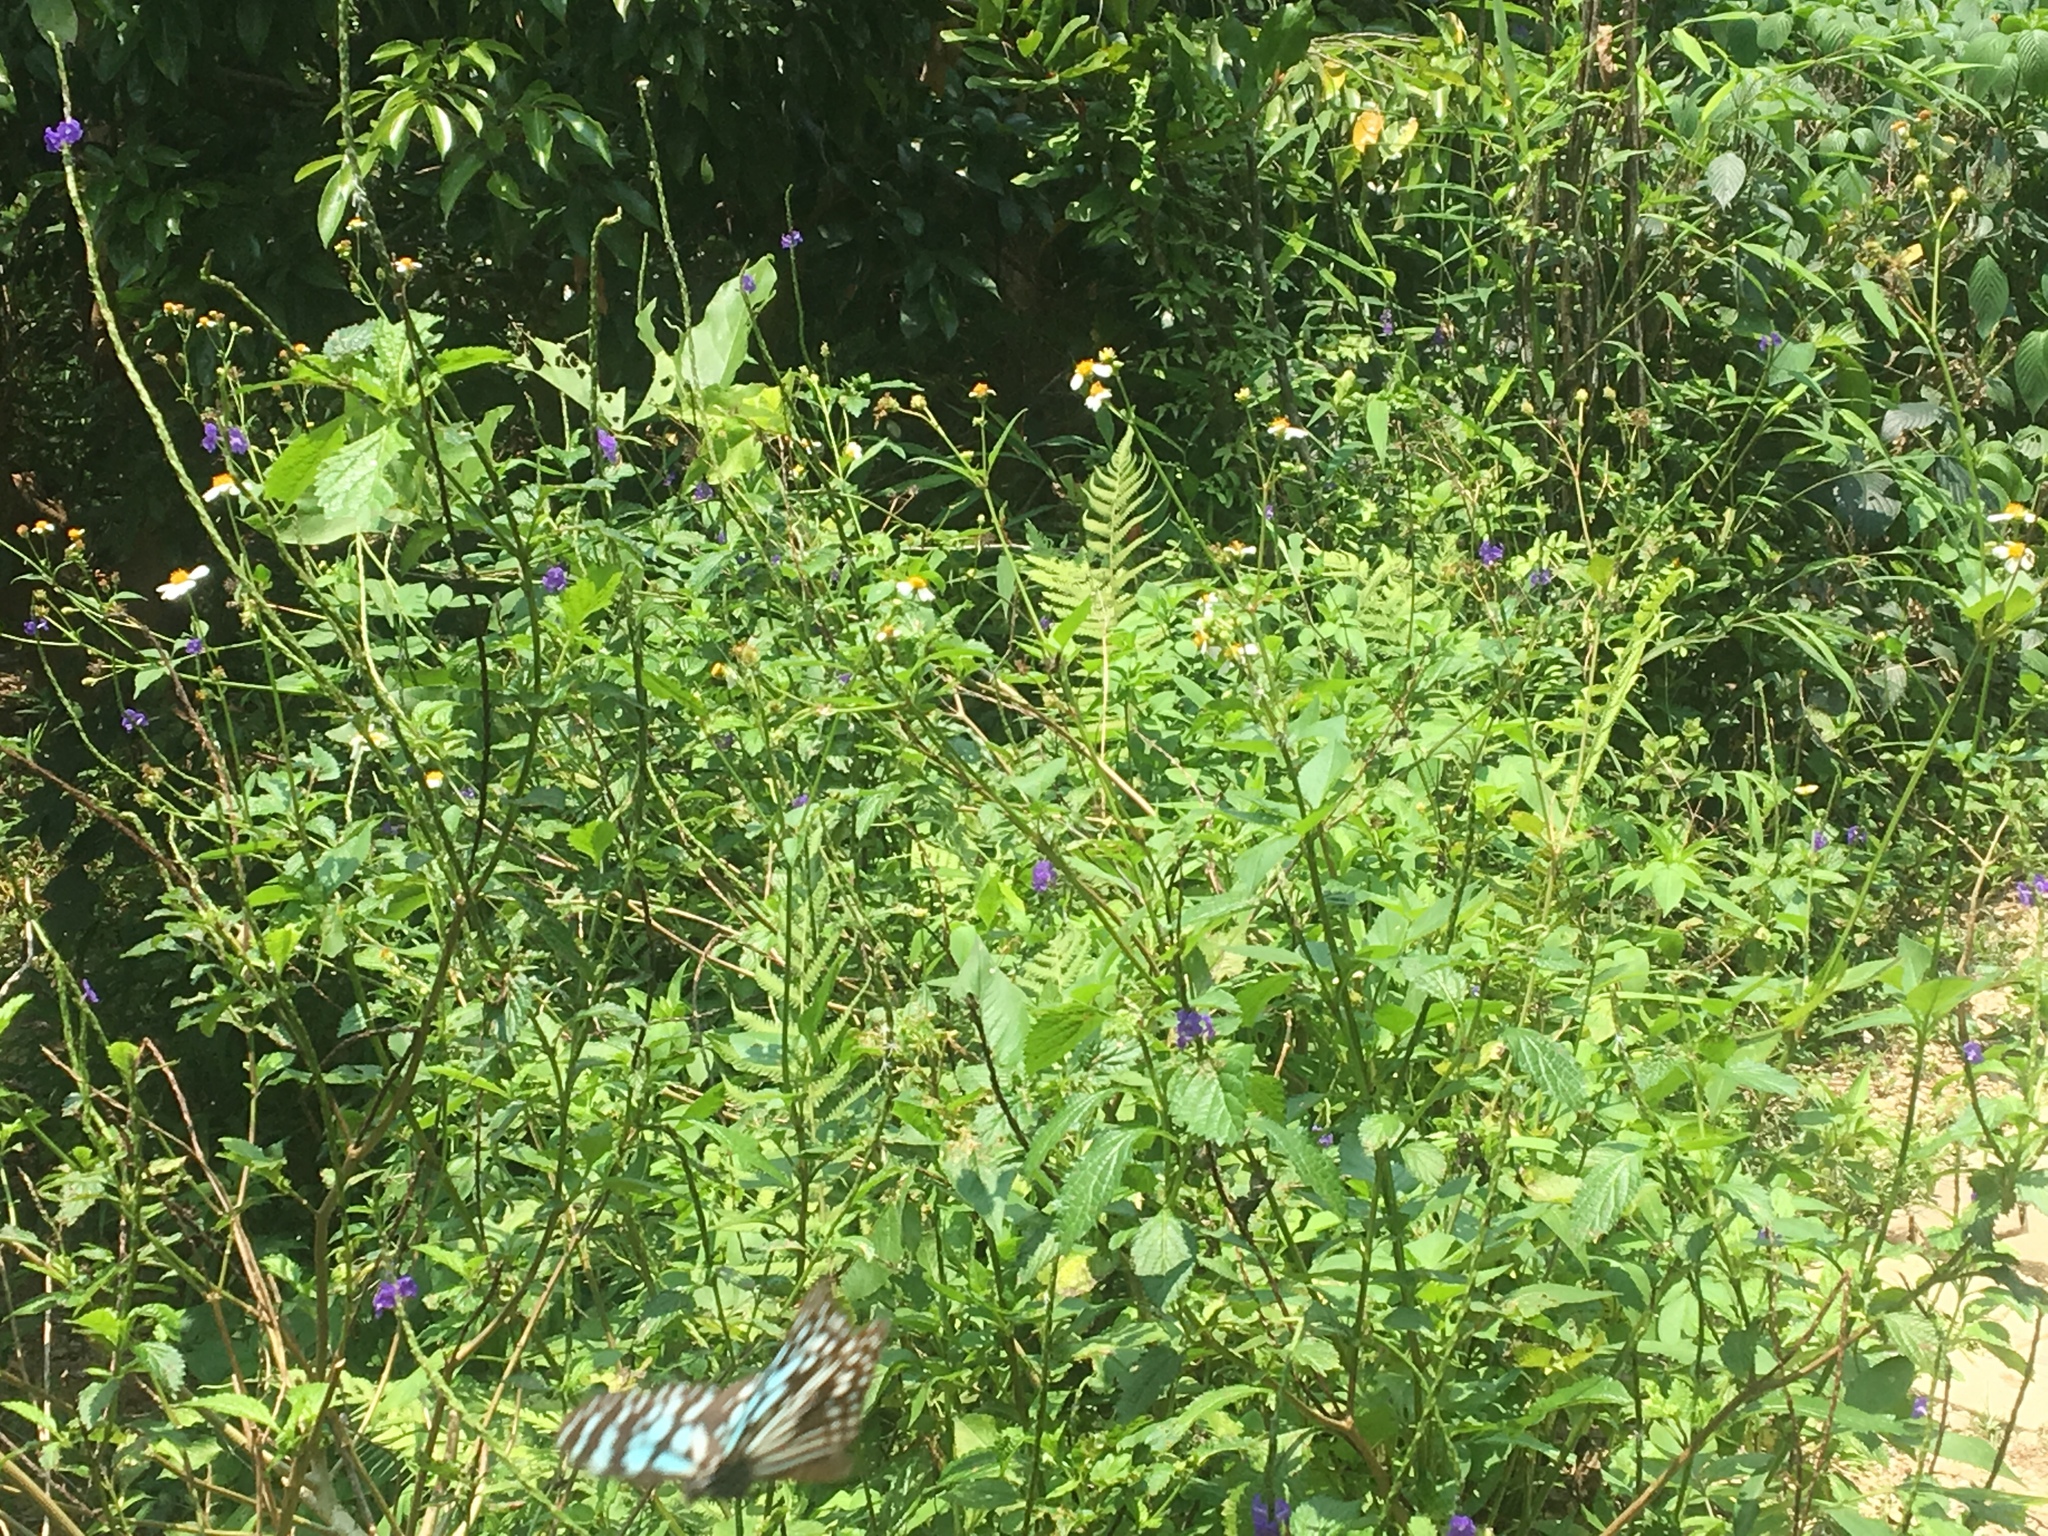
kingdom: Animalia
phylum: Arthropoda
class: Insecta
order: Lepidoptera
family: Nymphalidae
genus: Tirumala
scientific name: Tirumala limniace
